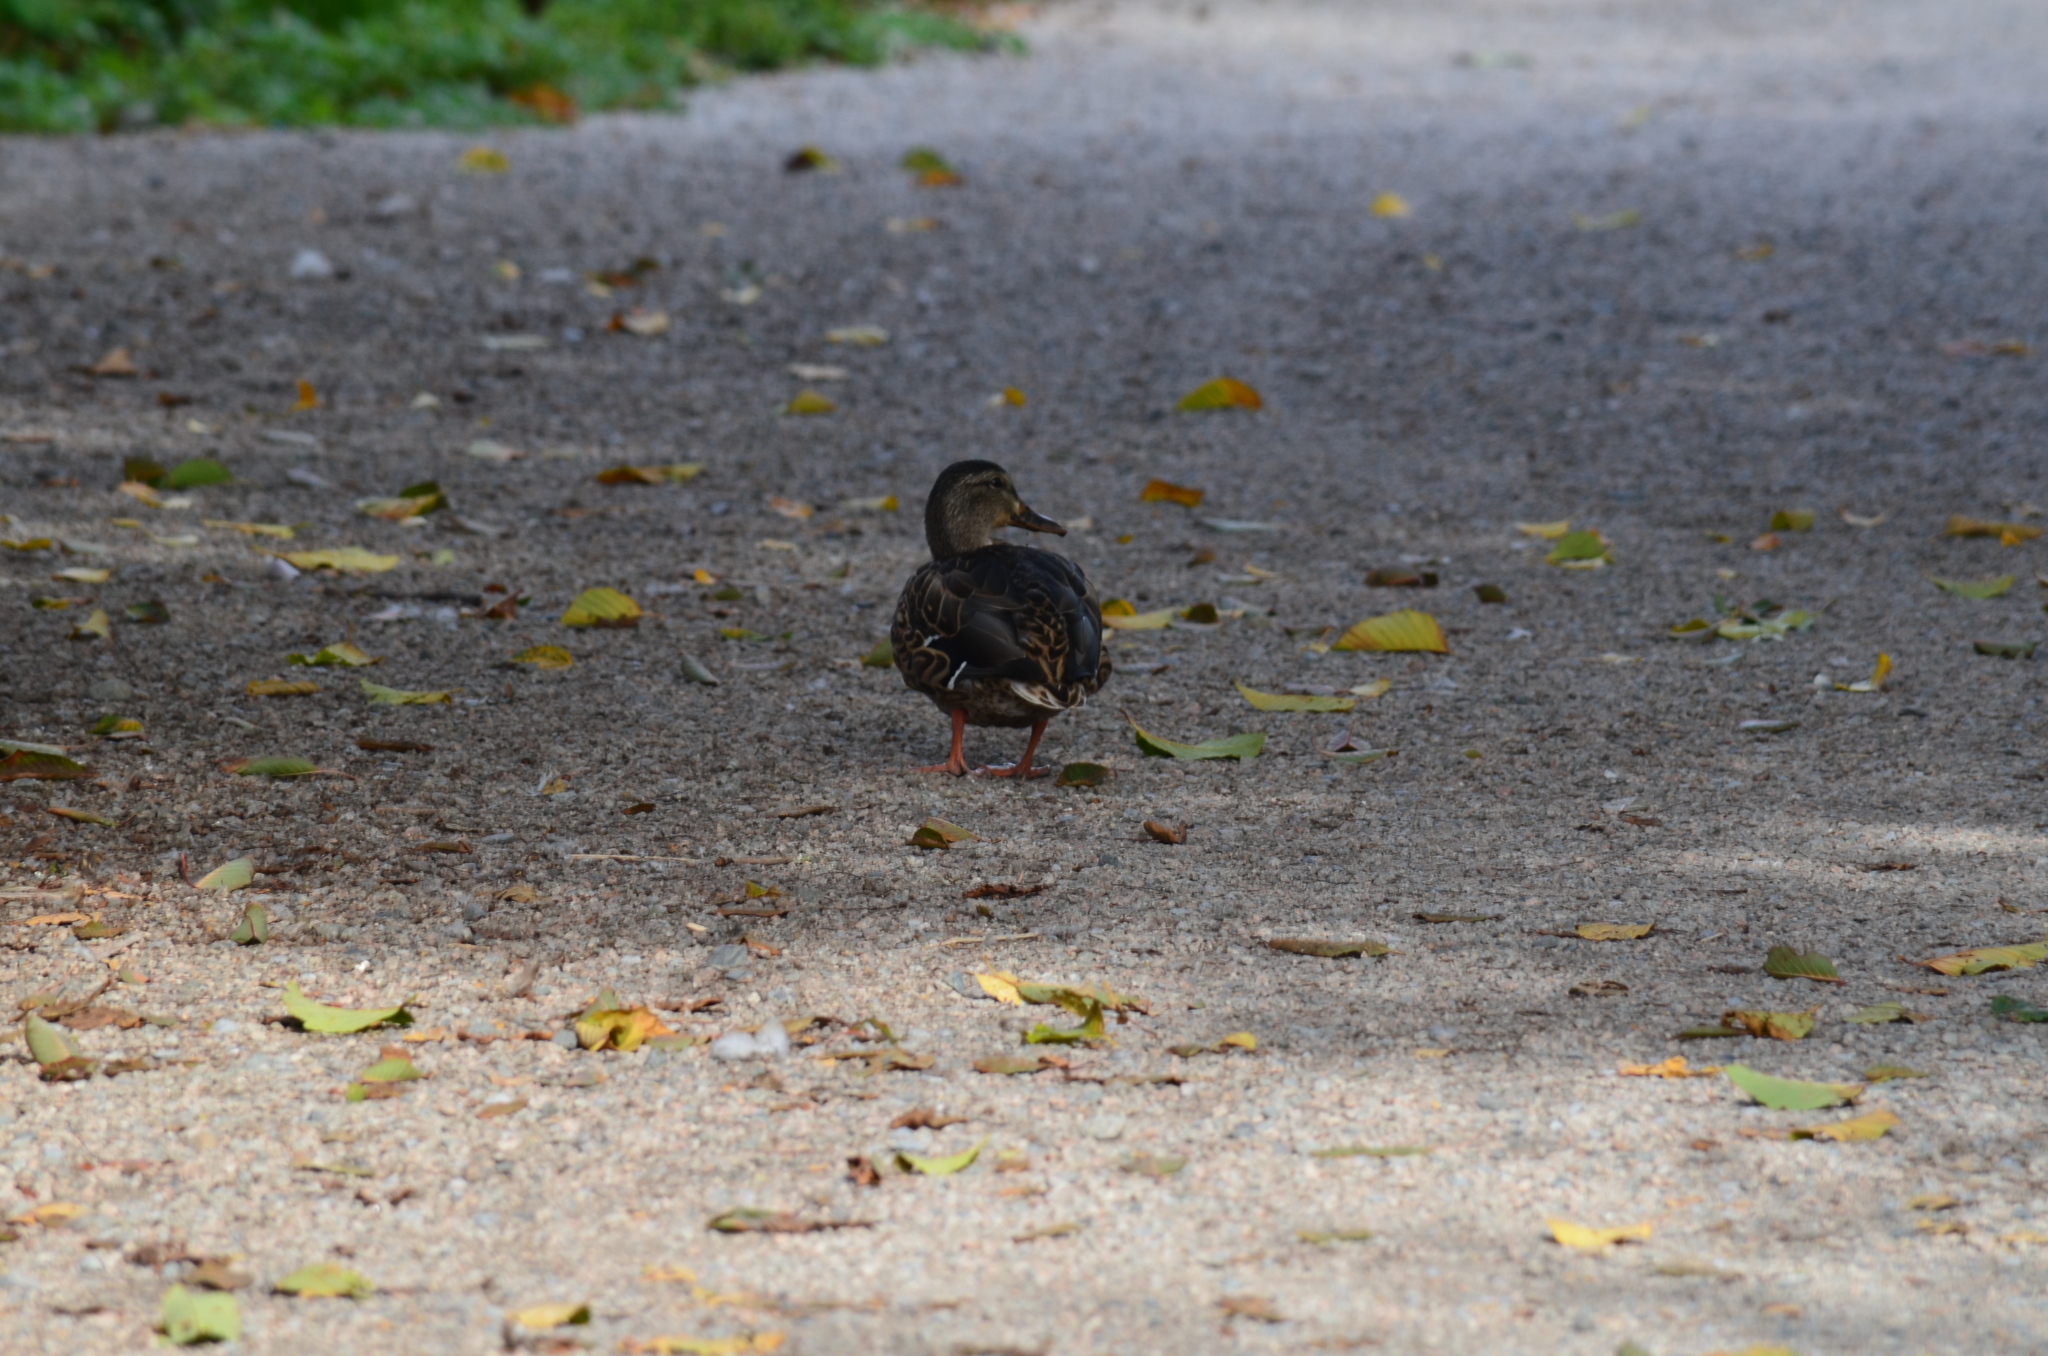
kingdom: Animalia
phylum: Chordata
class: Aves
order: Anseriformes
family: Anatidae
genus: Anas
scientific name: Anas platyrhynchos
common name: Mallard
